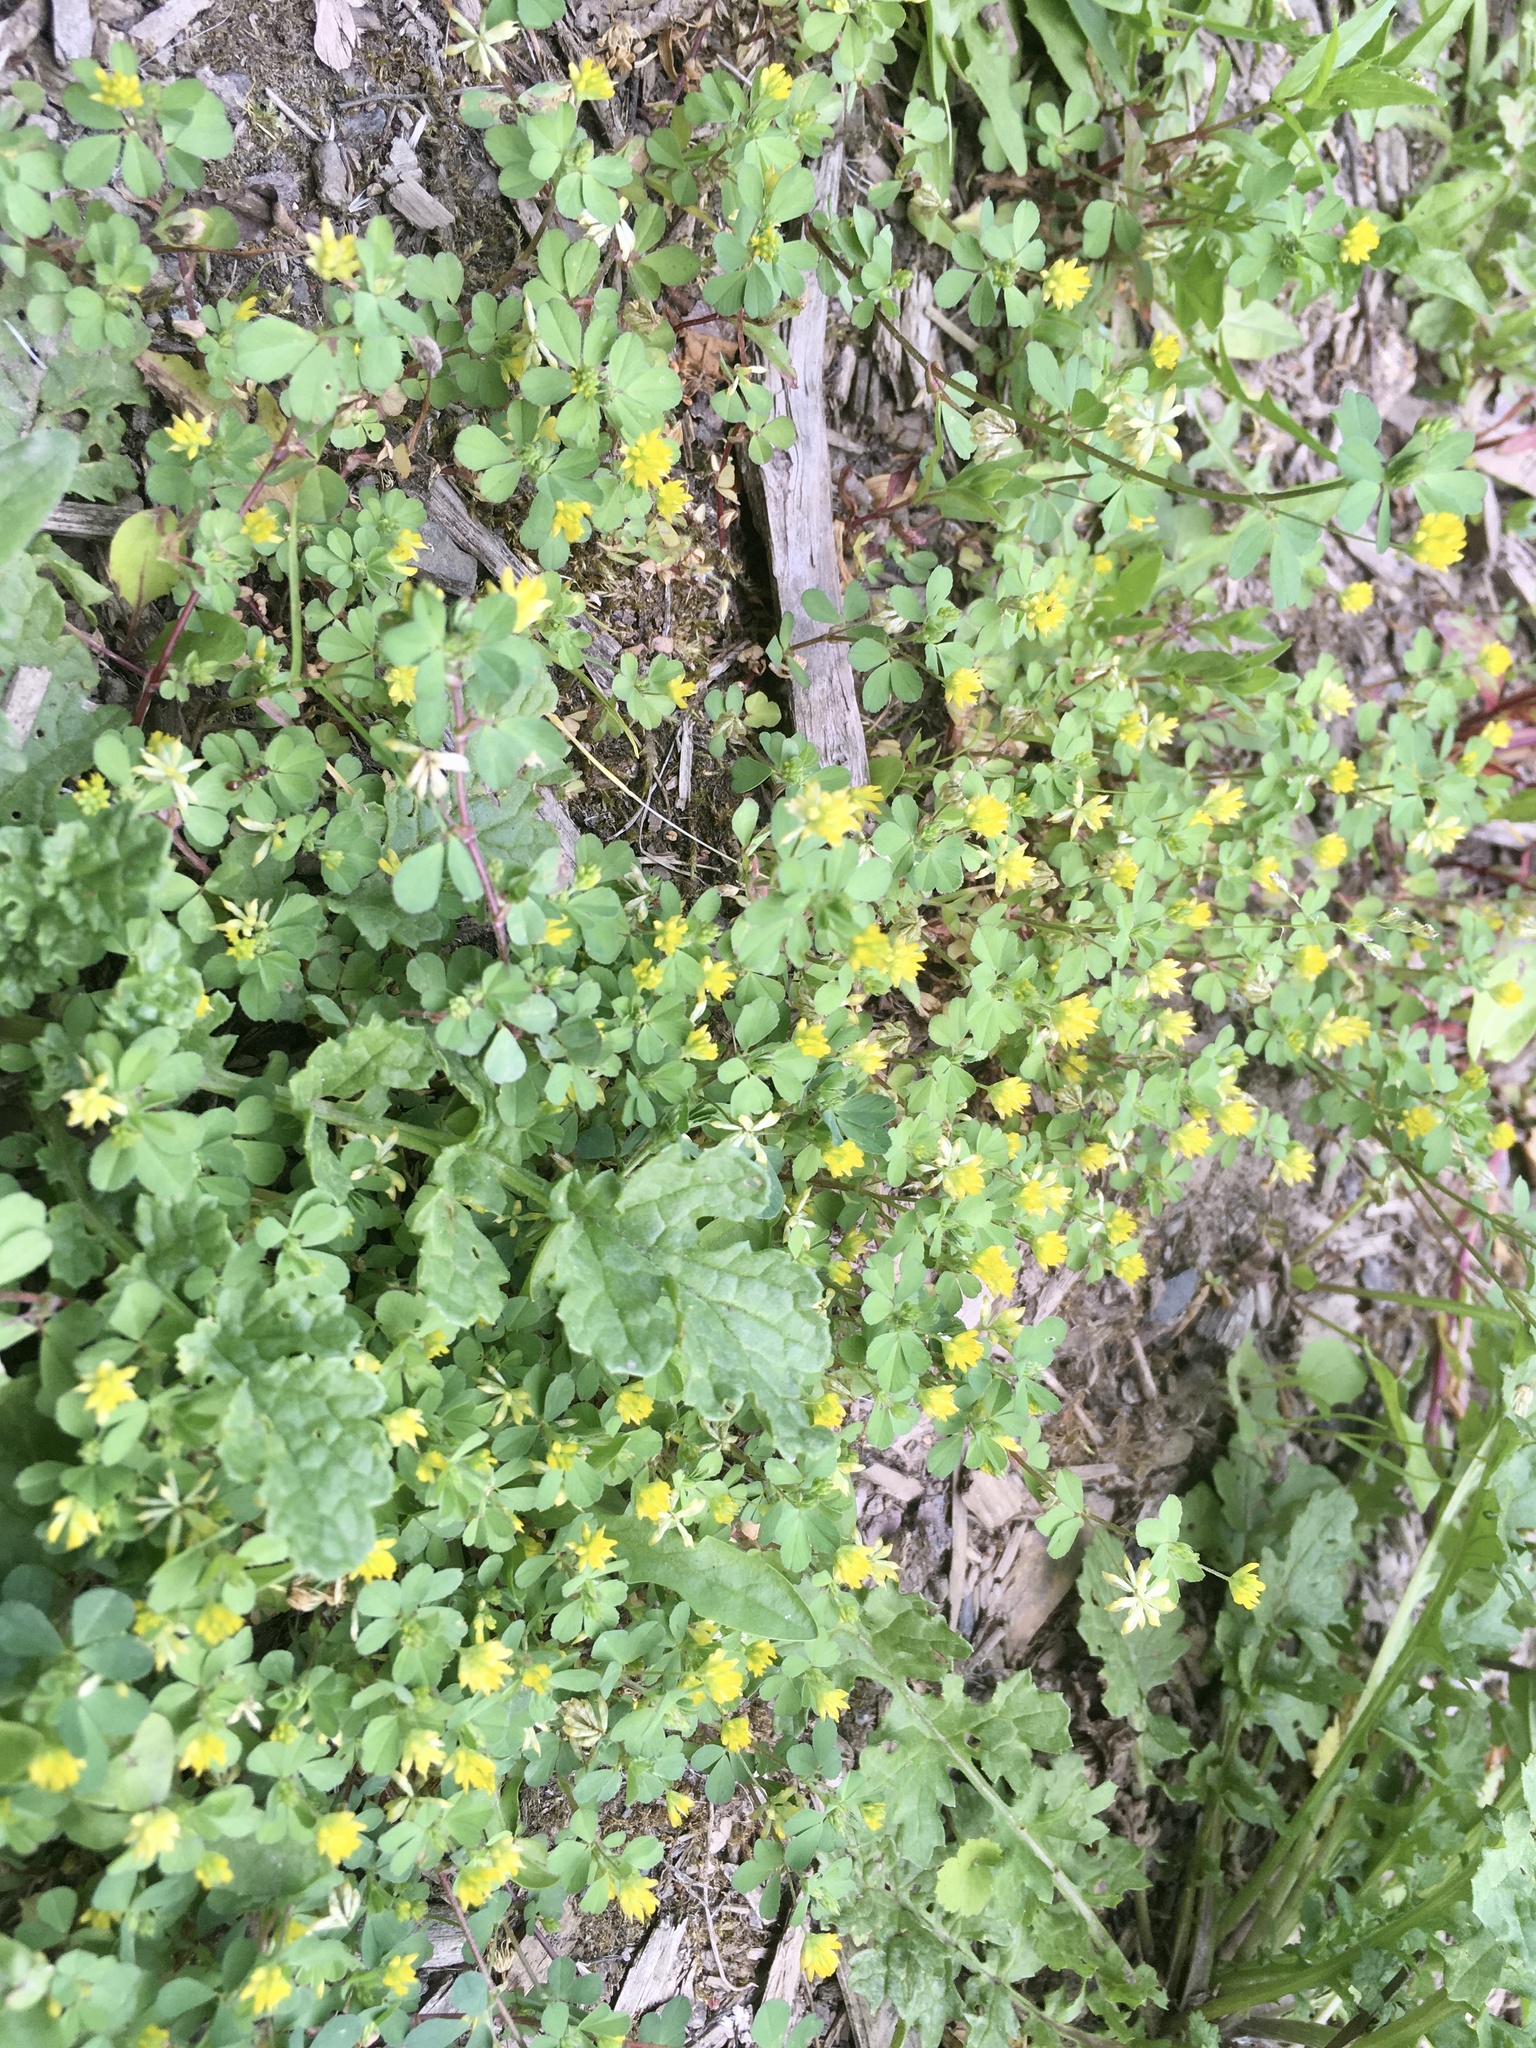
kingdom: Plantae
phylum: Tracheophyta
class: Magnoliopsida
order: Fabales
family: Fabaceae
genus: Trifolium
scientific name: Trifolium dubium
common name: Suckling clover
